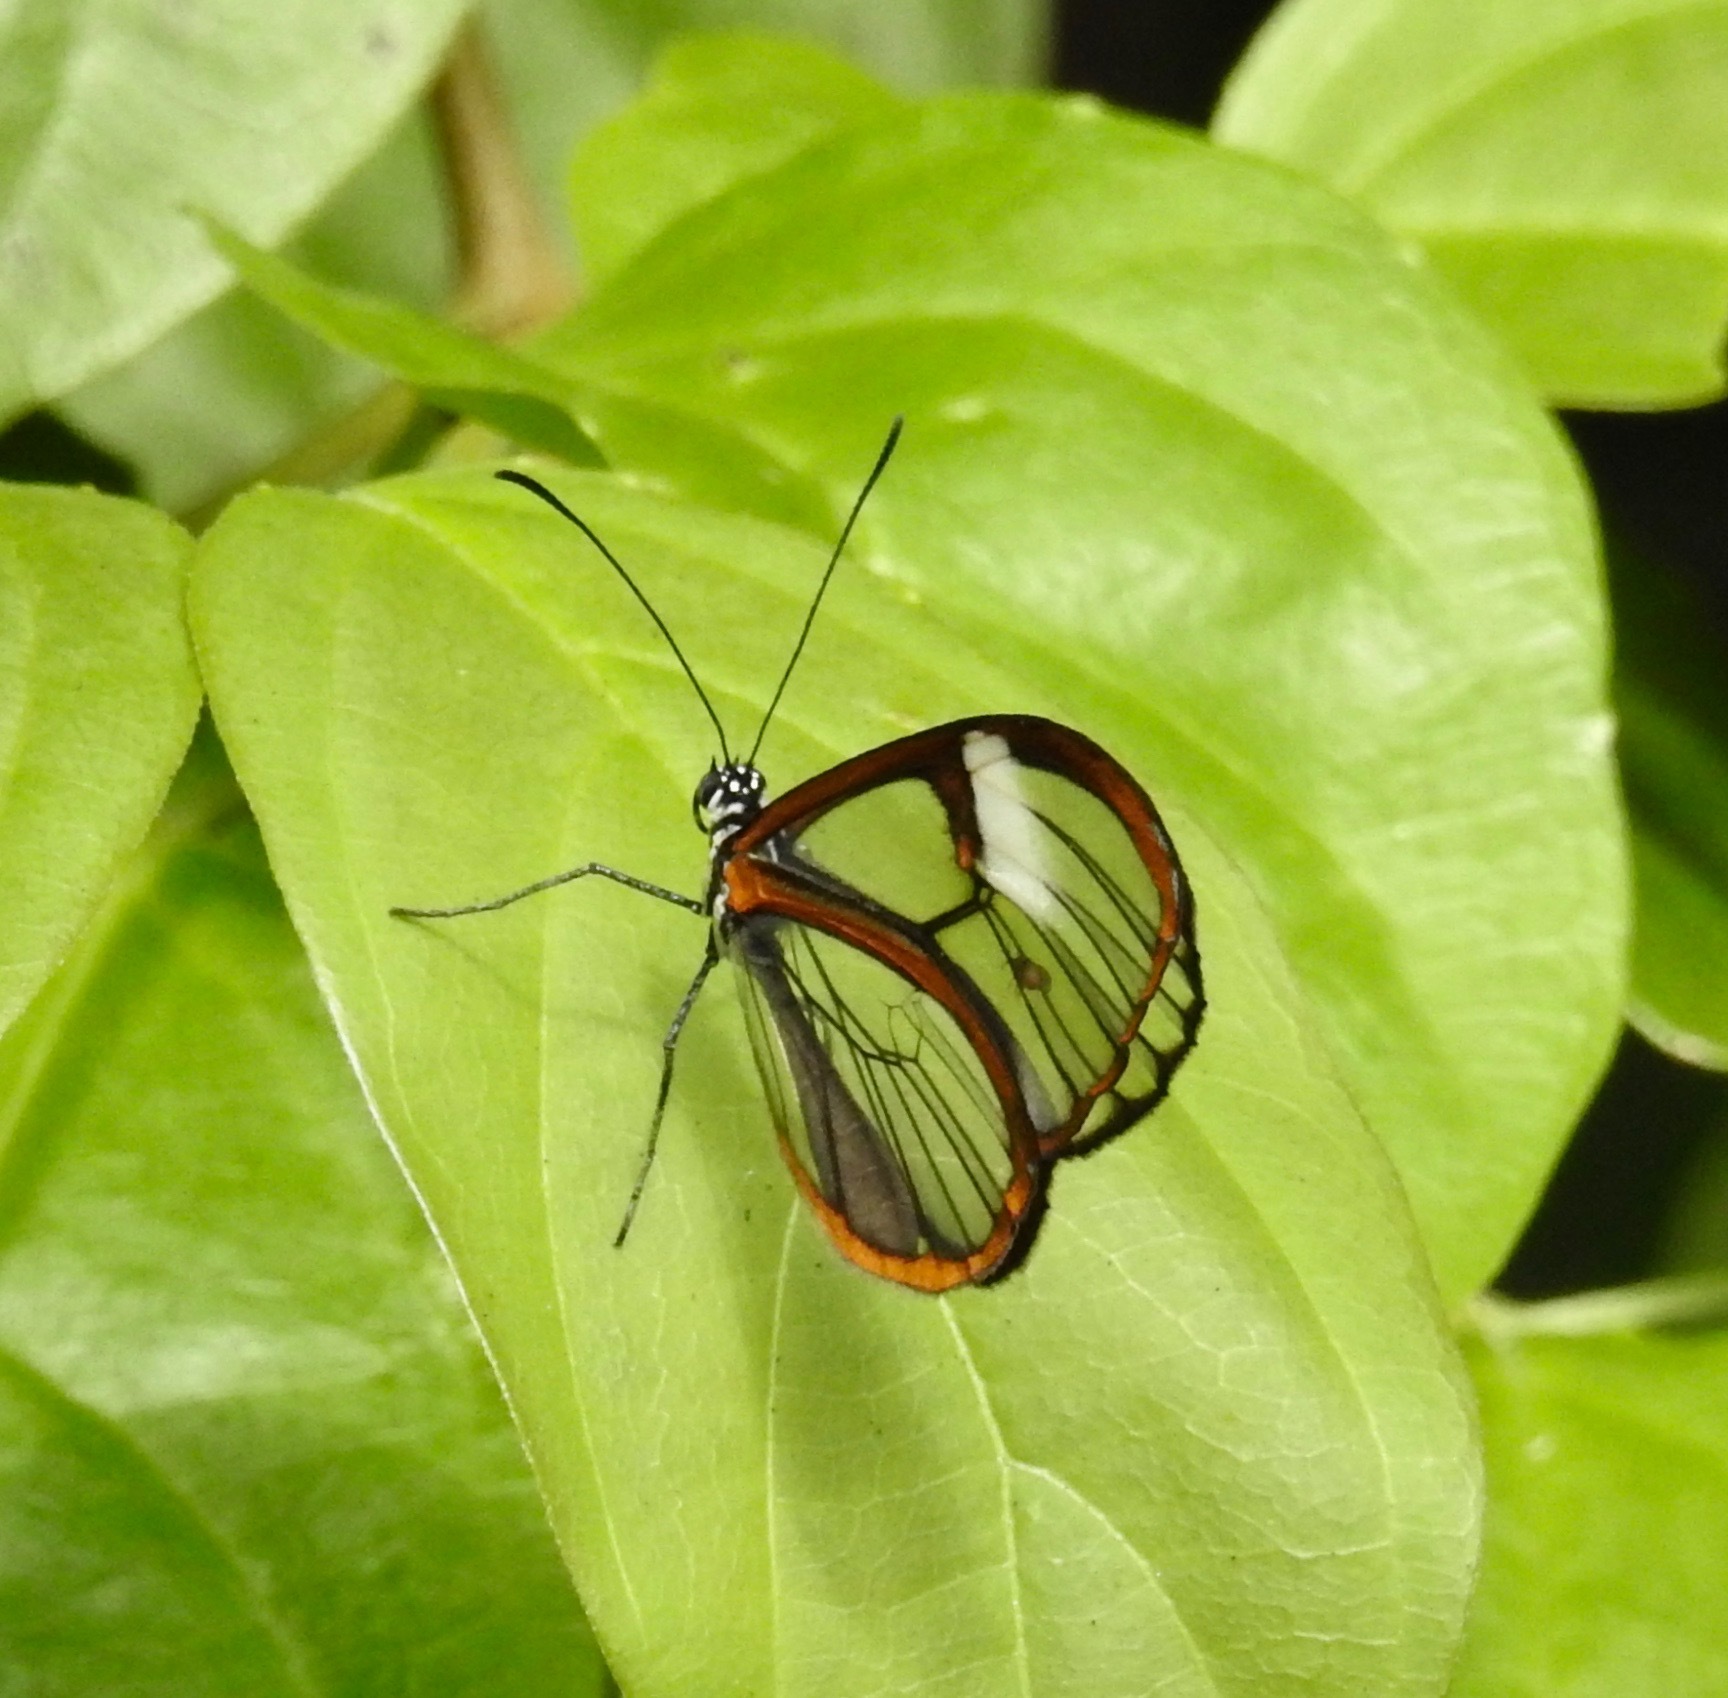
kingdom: Animalia
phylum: Arthropoda
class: Insecta
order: Lepidoptera
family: Nymphalidae
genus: Pteronymia
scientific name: Pteronymia alissa
